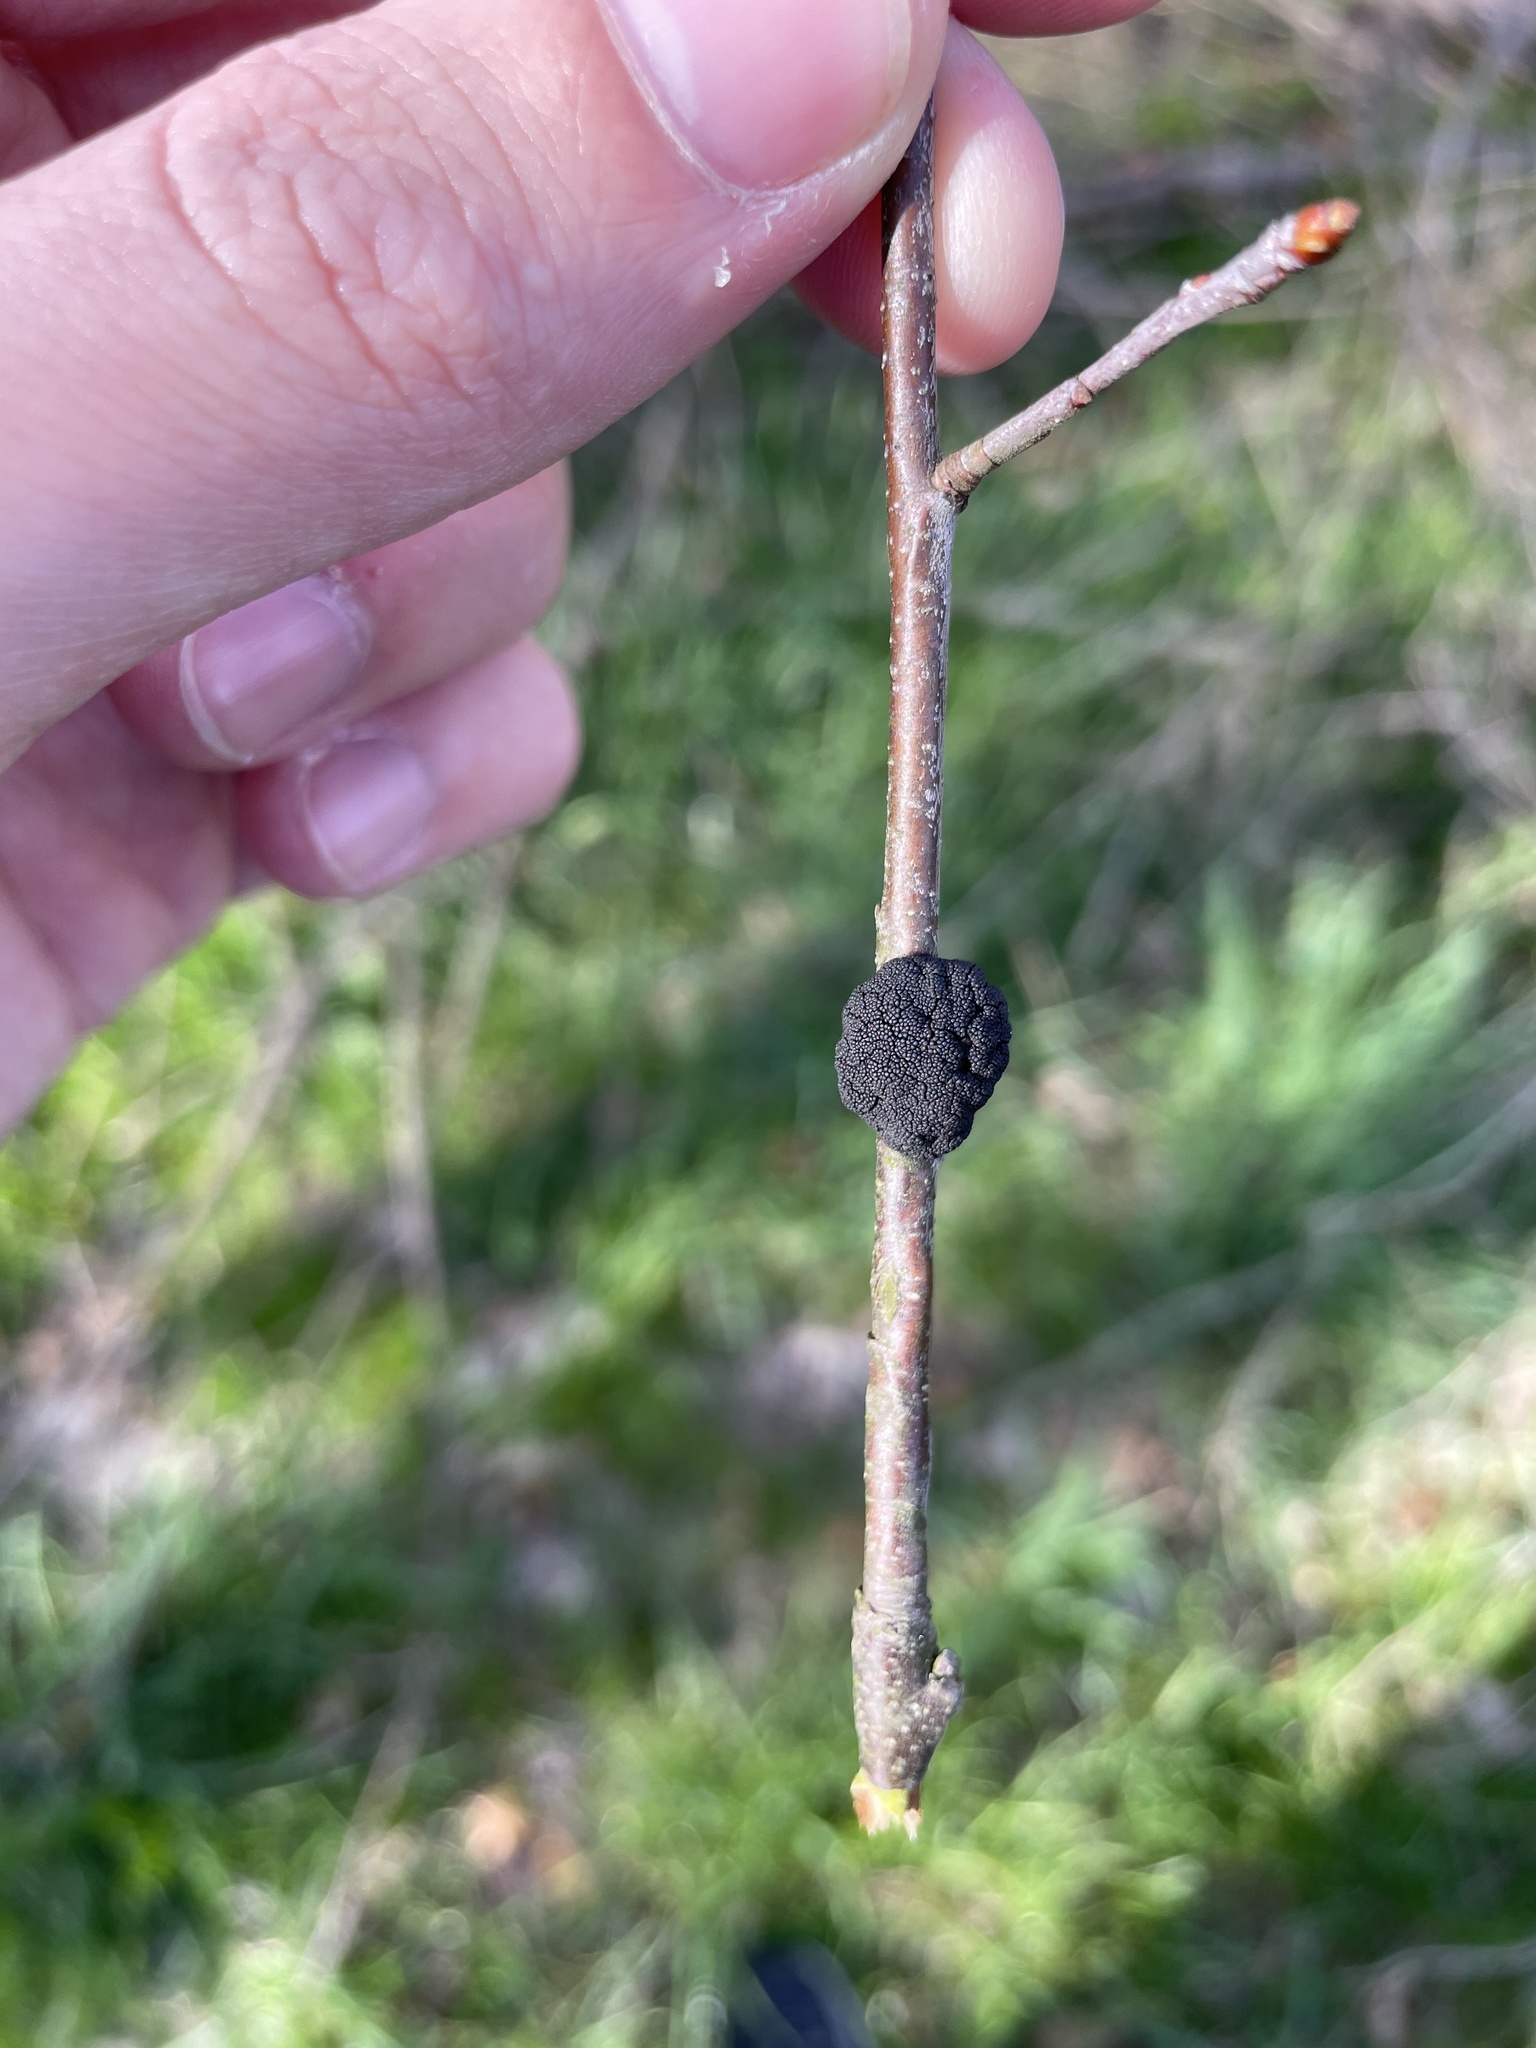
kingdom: Fungi
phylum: Ascomycota
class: Dothideomycetes
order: Venturiales
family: Venturiaceae
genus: Apiosporina
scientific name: Apiosporina morbosa
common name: Black knot
